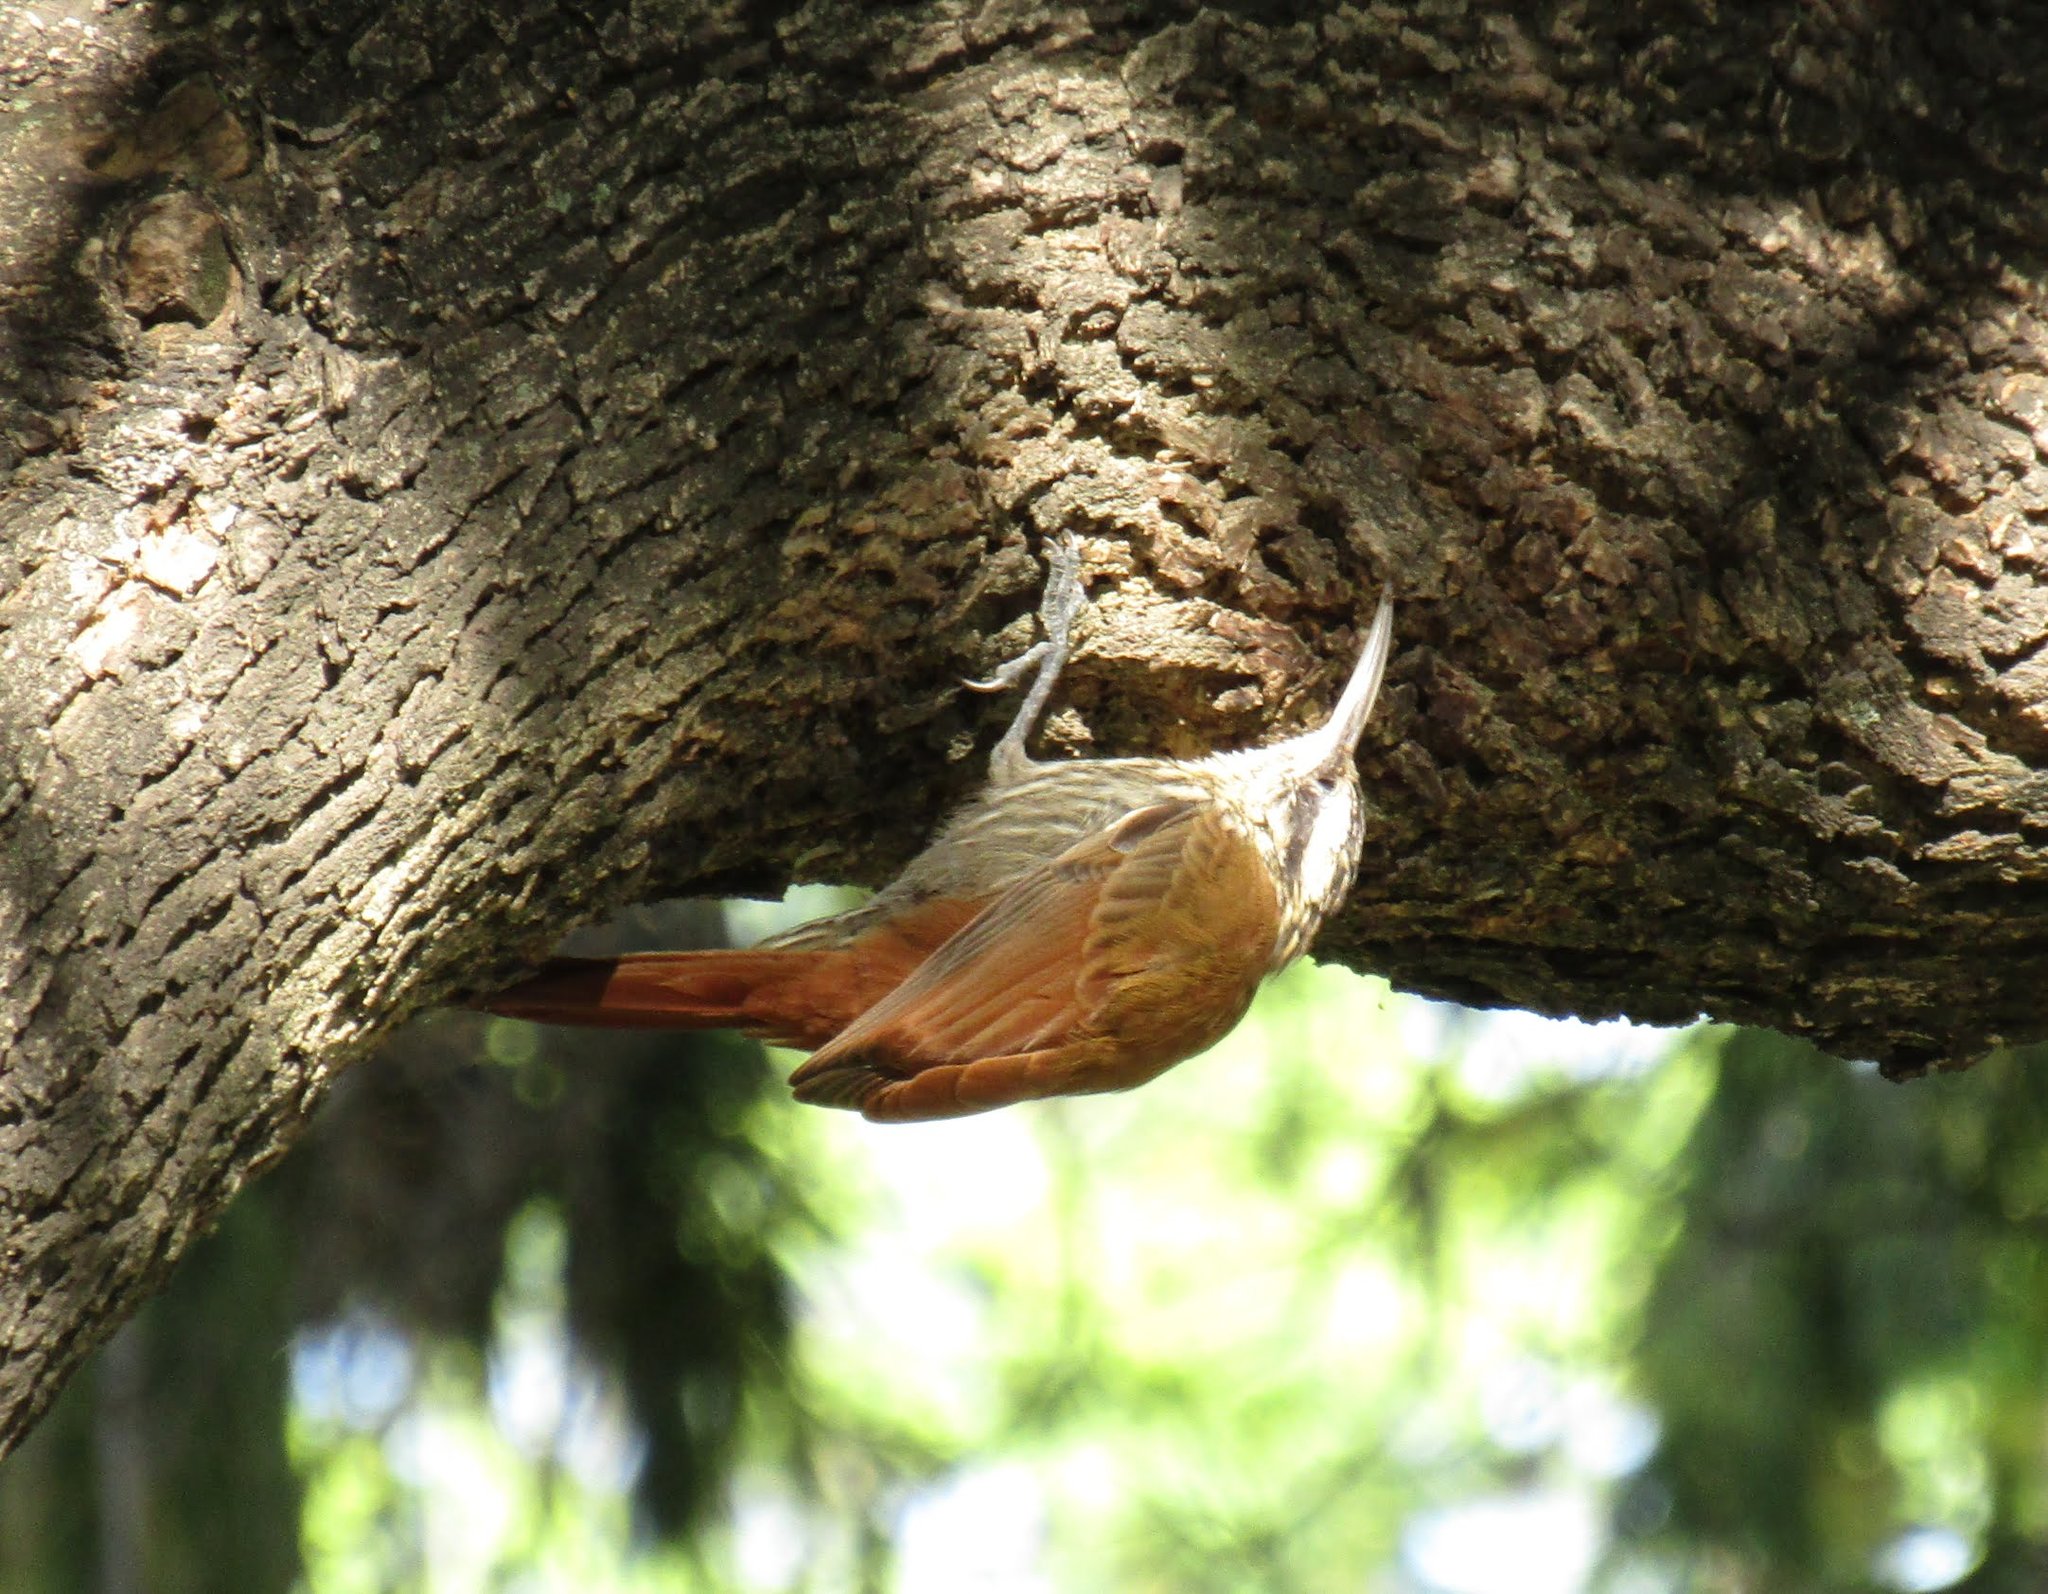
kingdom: Animalia
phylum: Chordata
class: Aves
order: Passeriformes
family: Furnariidae
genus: Lepidocolaptes
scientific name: Lepidocolaptes angustirostris
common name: Narrow-billed woodcreeper
